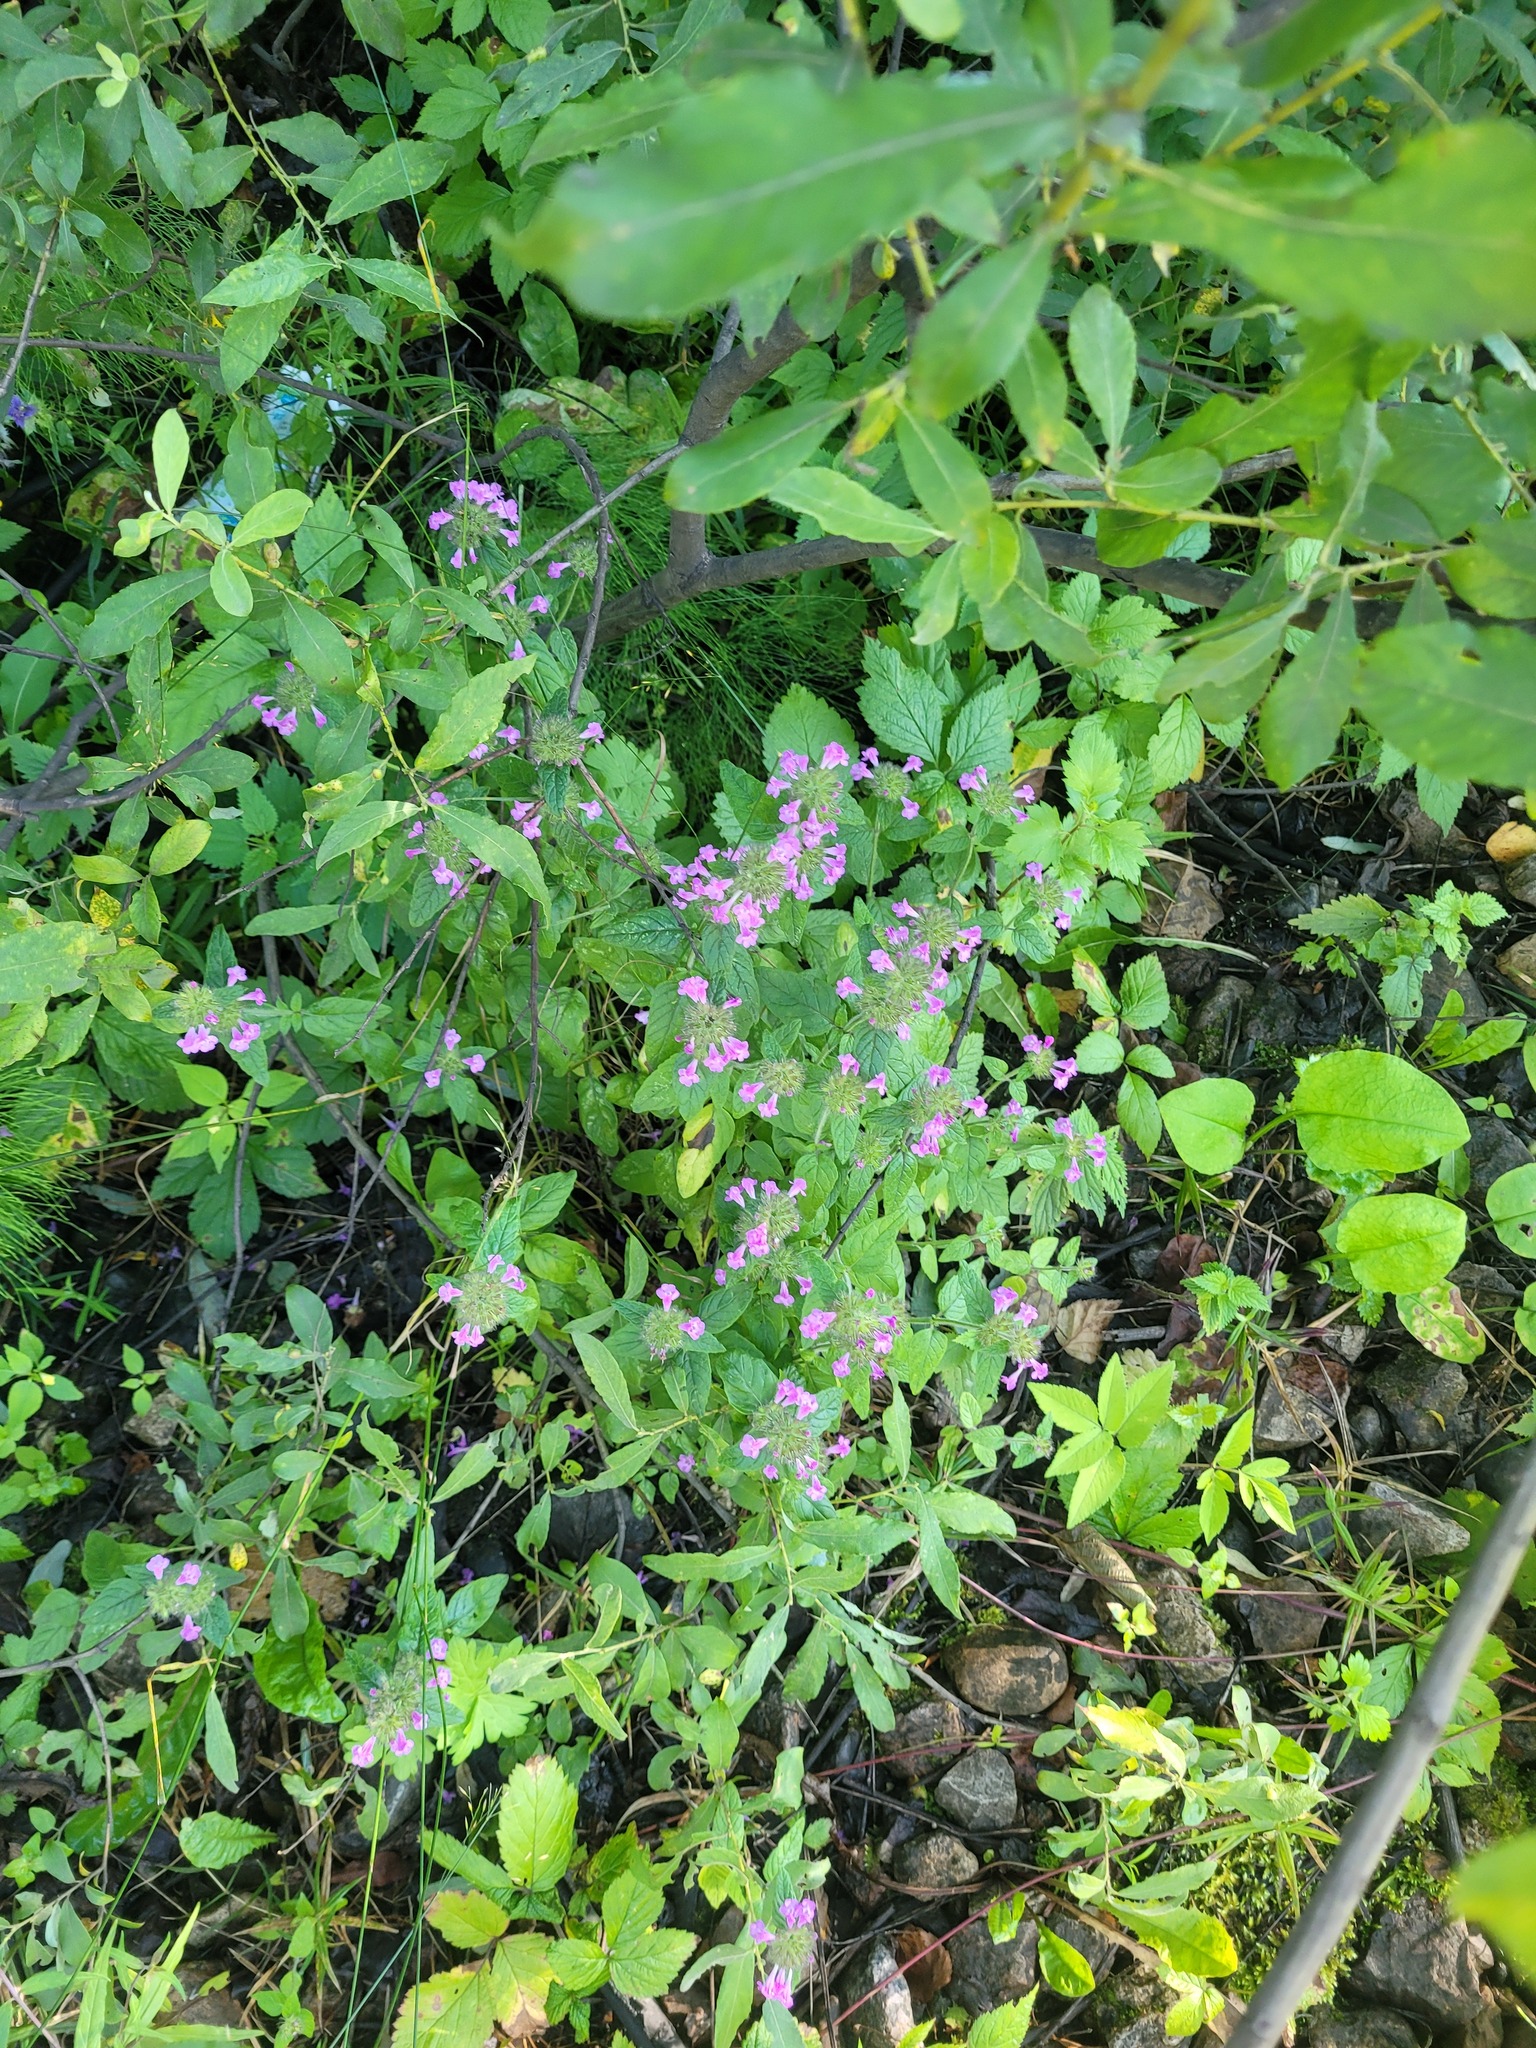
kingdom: Plantae
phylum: Tracheophyta
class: Magnoliopsida
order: Lamiales
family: Lamiaceae
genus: Clinopodium
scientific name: Clinopodium vulgare
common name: Wild basil
